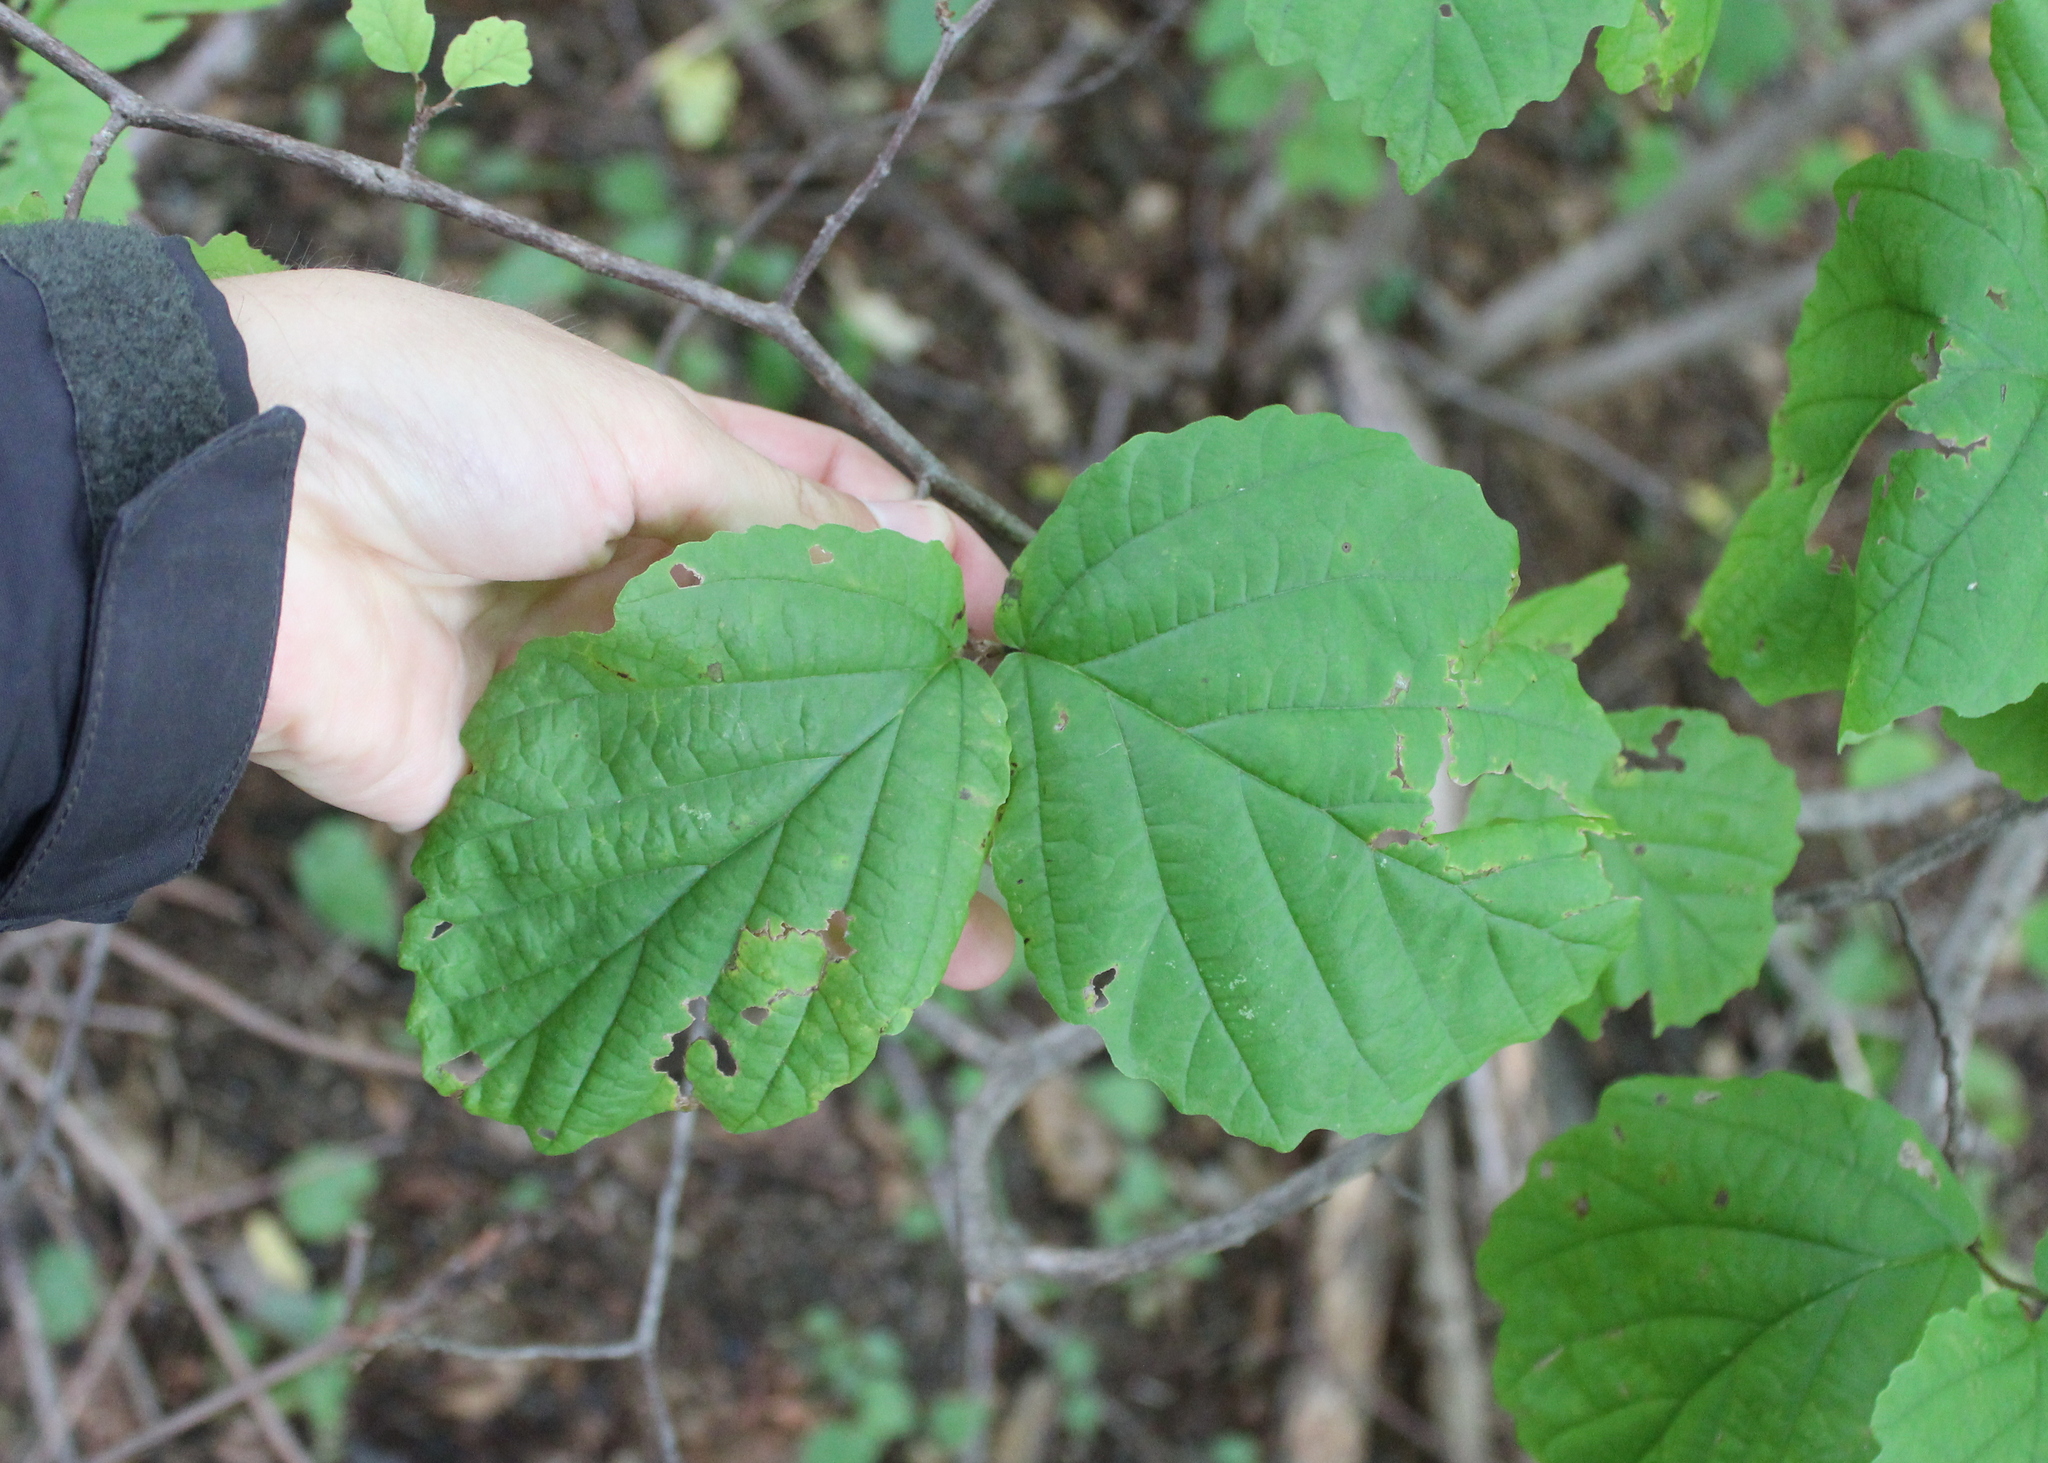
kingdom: Plantae
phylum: Tracheophyta
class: Magnoliopsida
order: Saxifragales
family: Hamamelidaceae
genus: Hamamelis
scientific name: Hamamelis virginiana
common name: Witch-hazel
